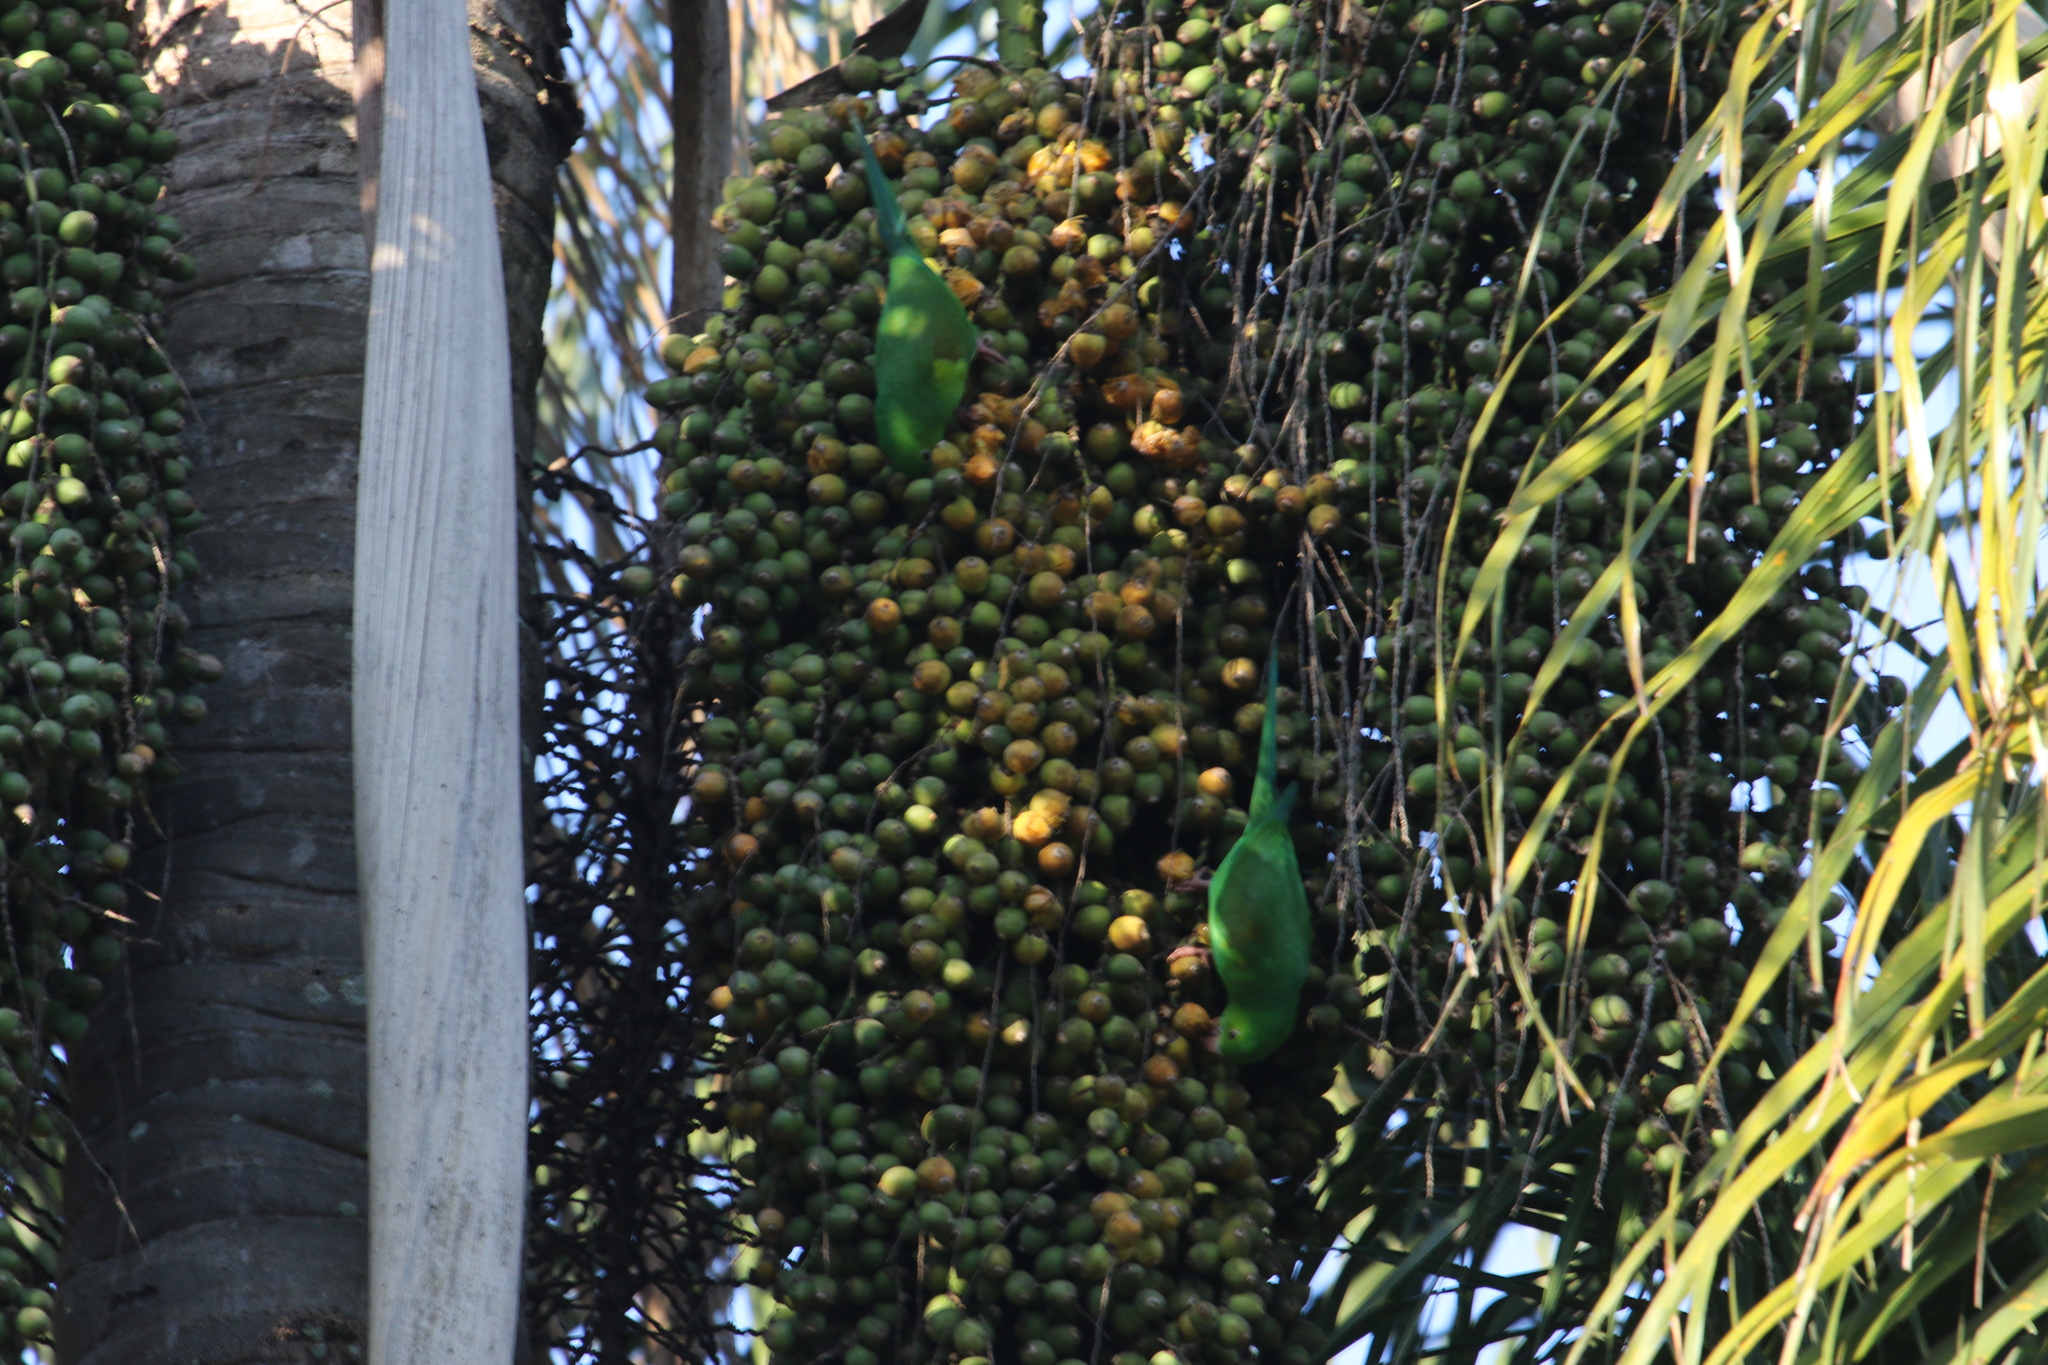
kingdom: Animalia
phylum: Chordata
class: Aves
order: Psittaciformes
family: Psittacidae
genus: Brotogeris
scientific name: Brotogeris tirica
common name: Plain parakeet
